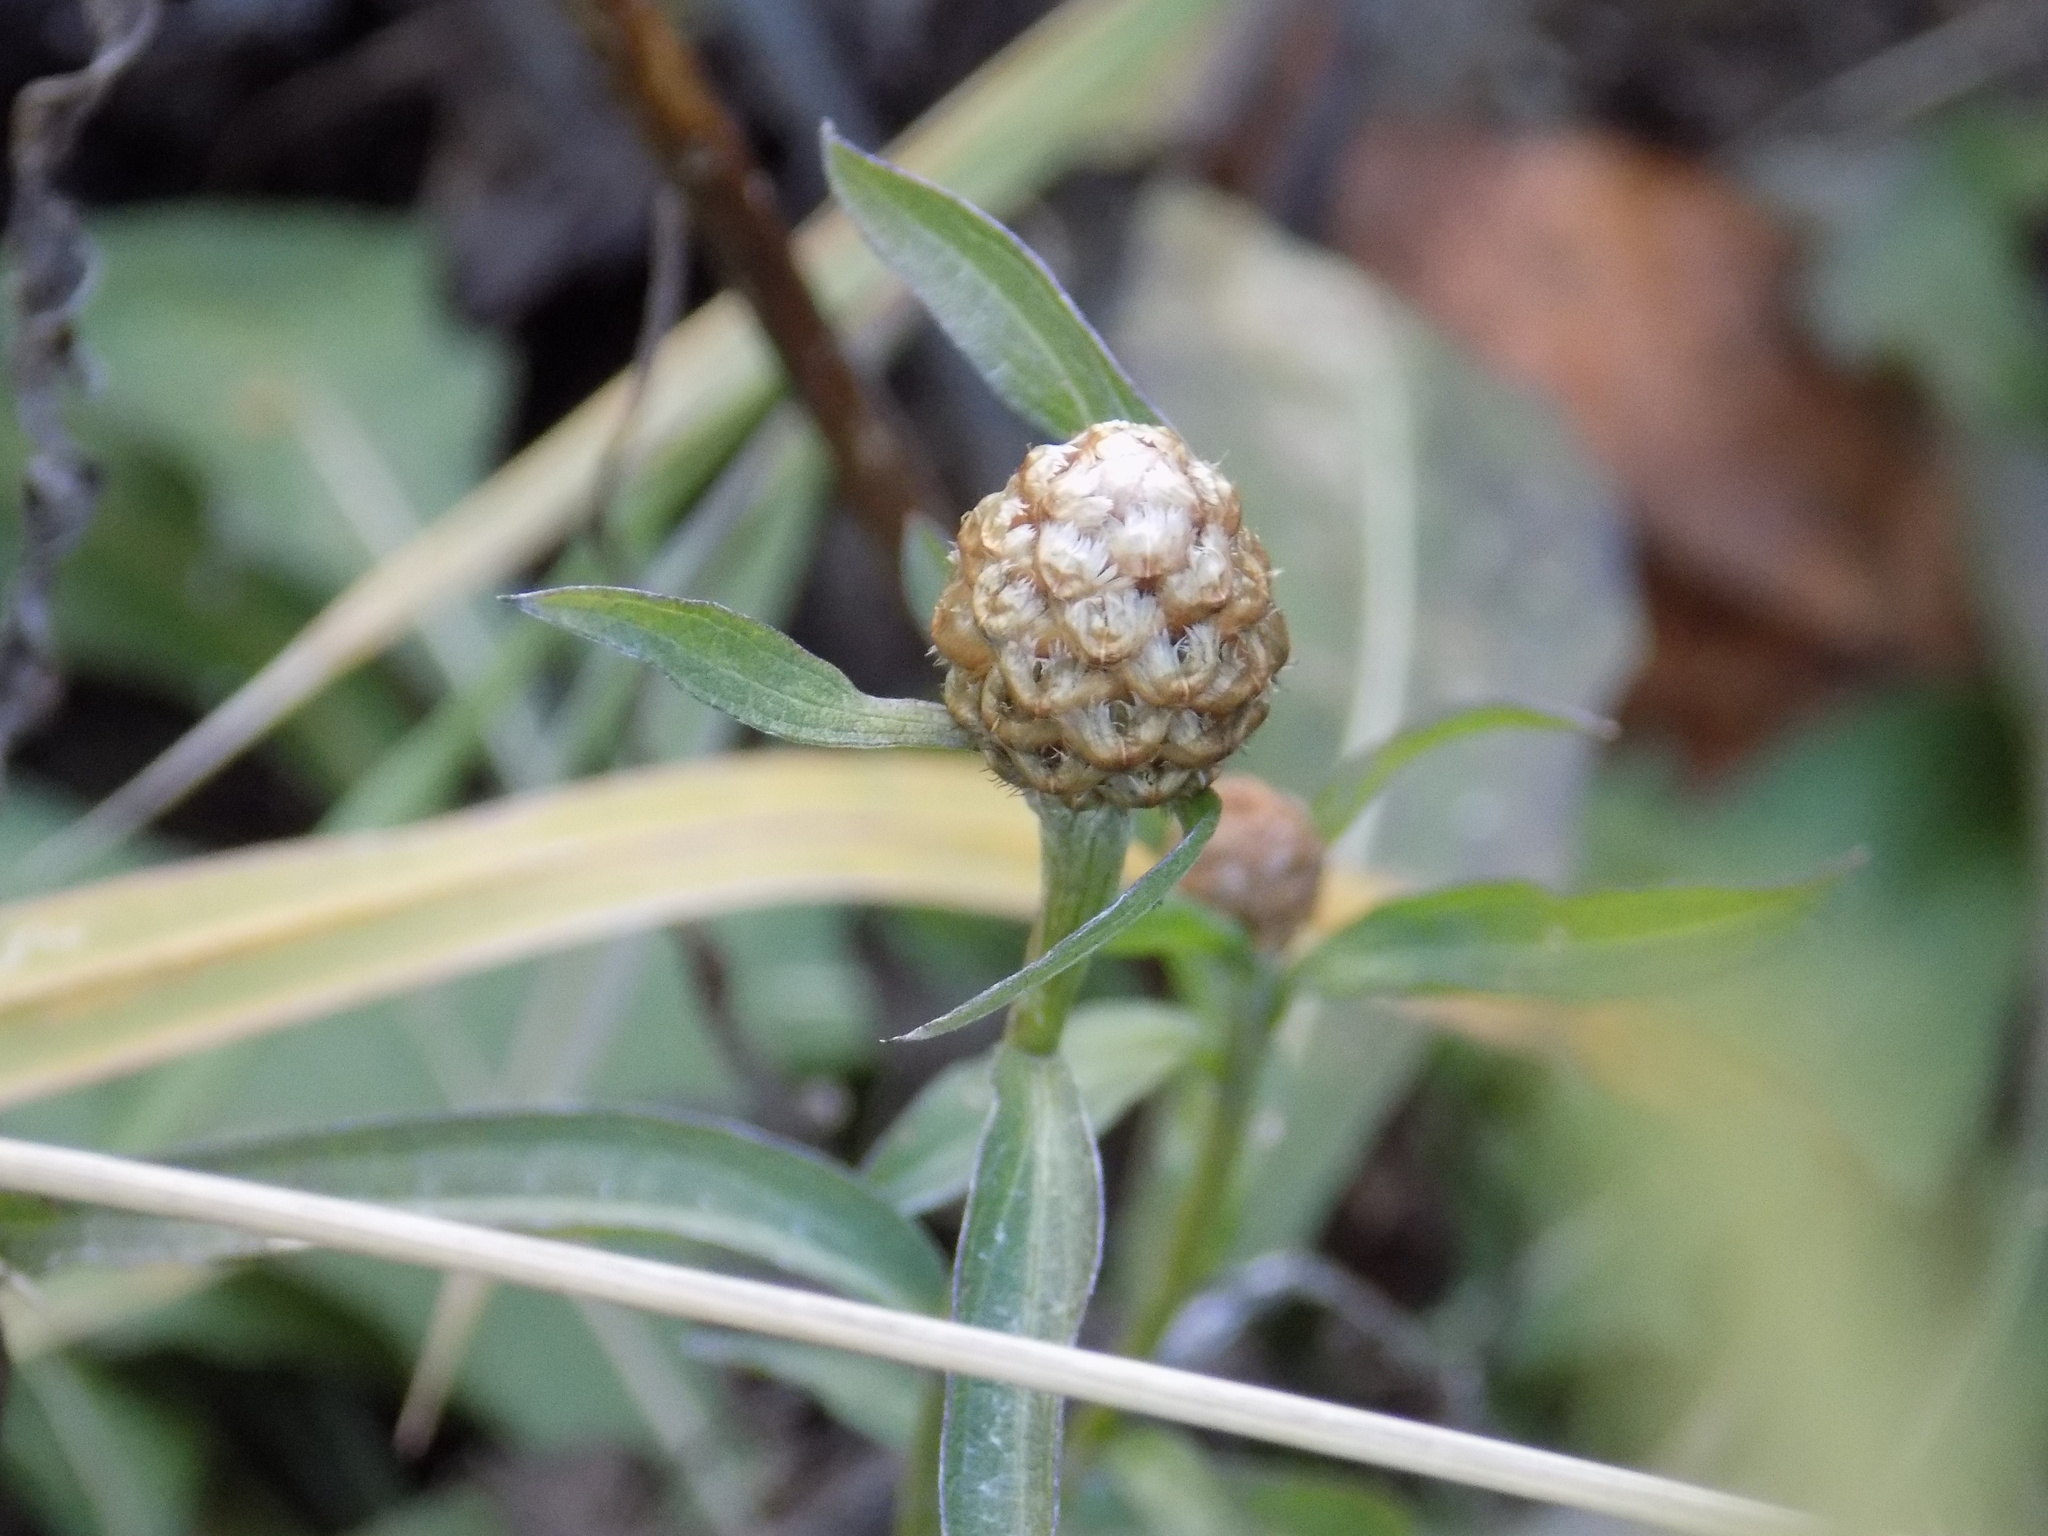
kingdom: Plantae
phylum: Tracheophyta
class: Magnoliopsida
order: Asterales
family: Asteraceae
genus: Centaurea
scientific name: Centaurea jacea
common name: Brown knapweed
